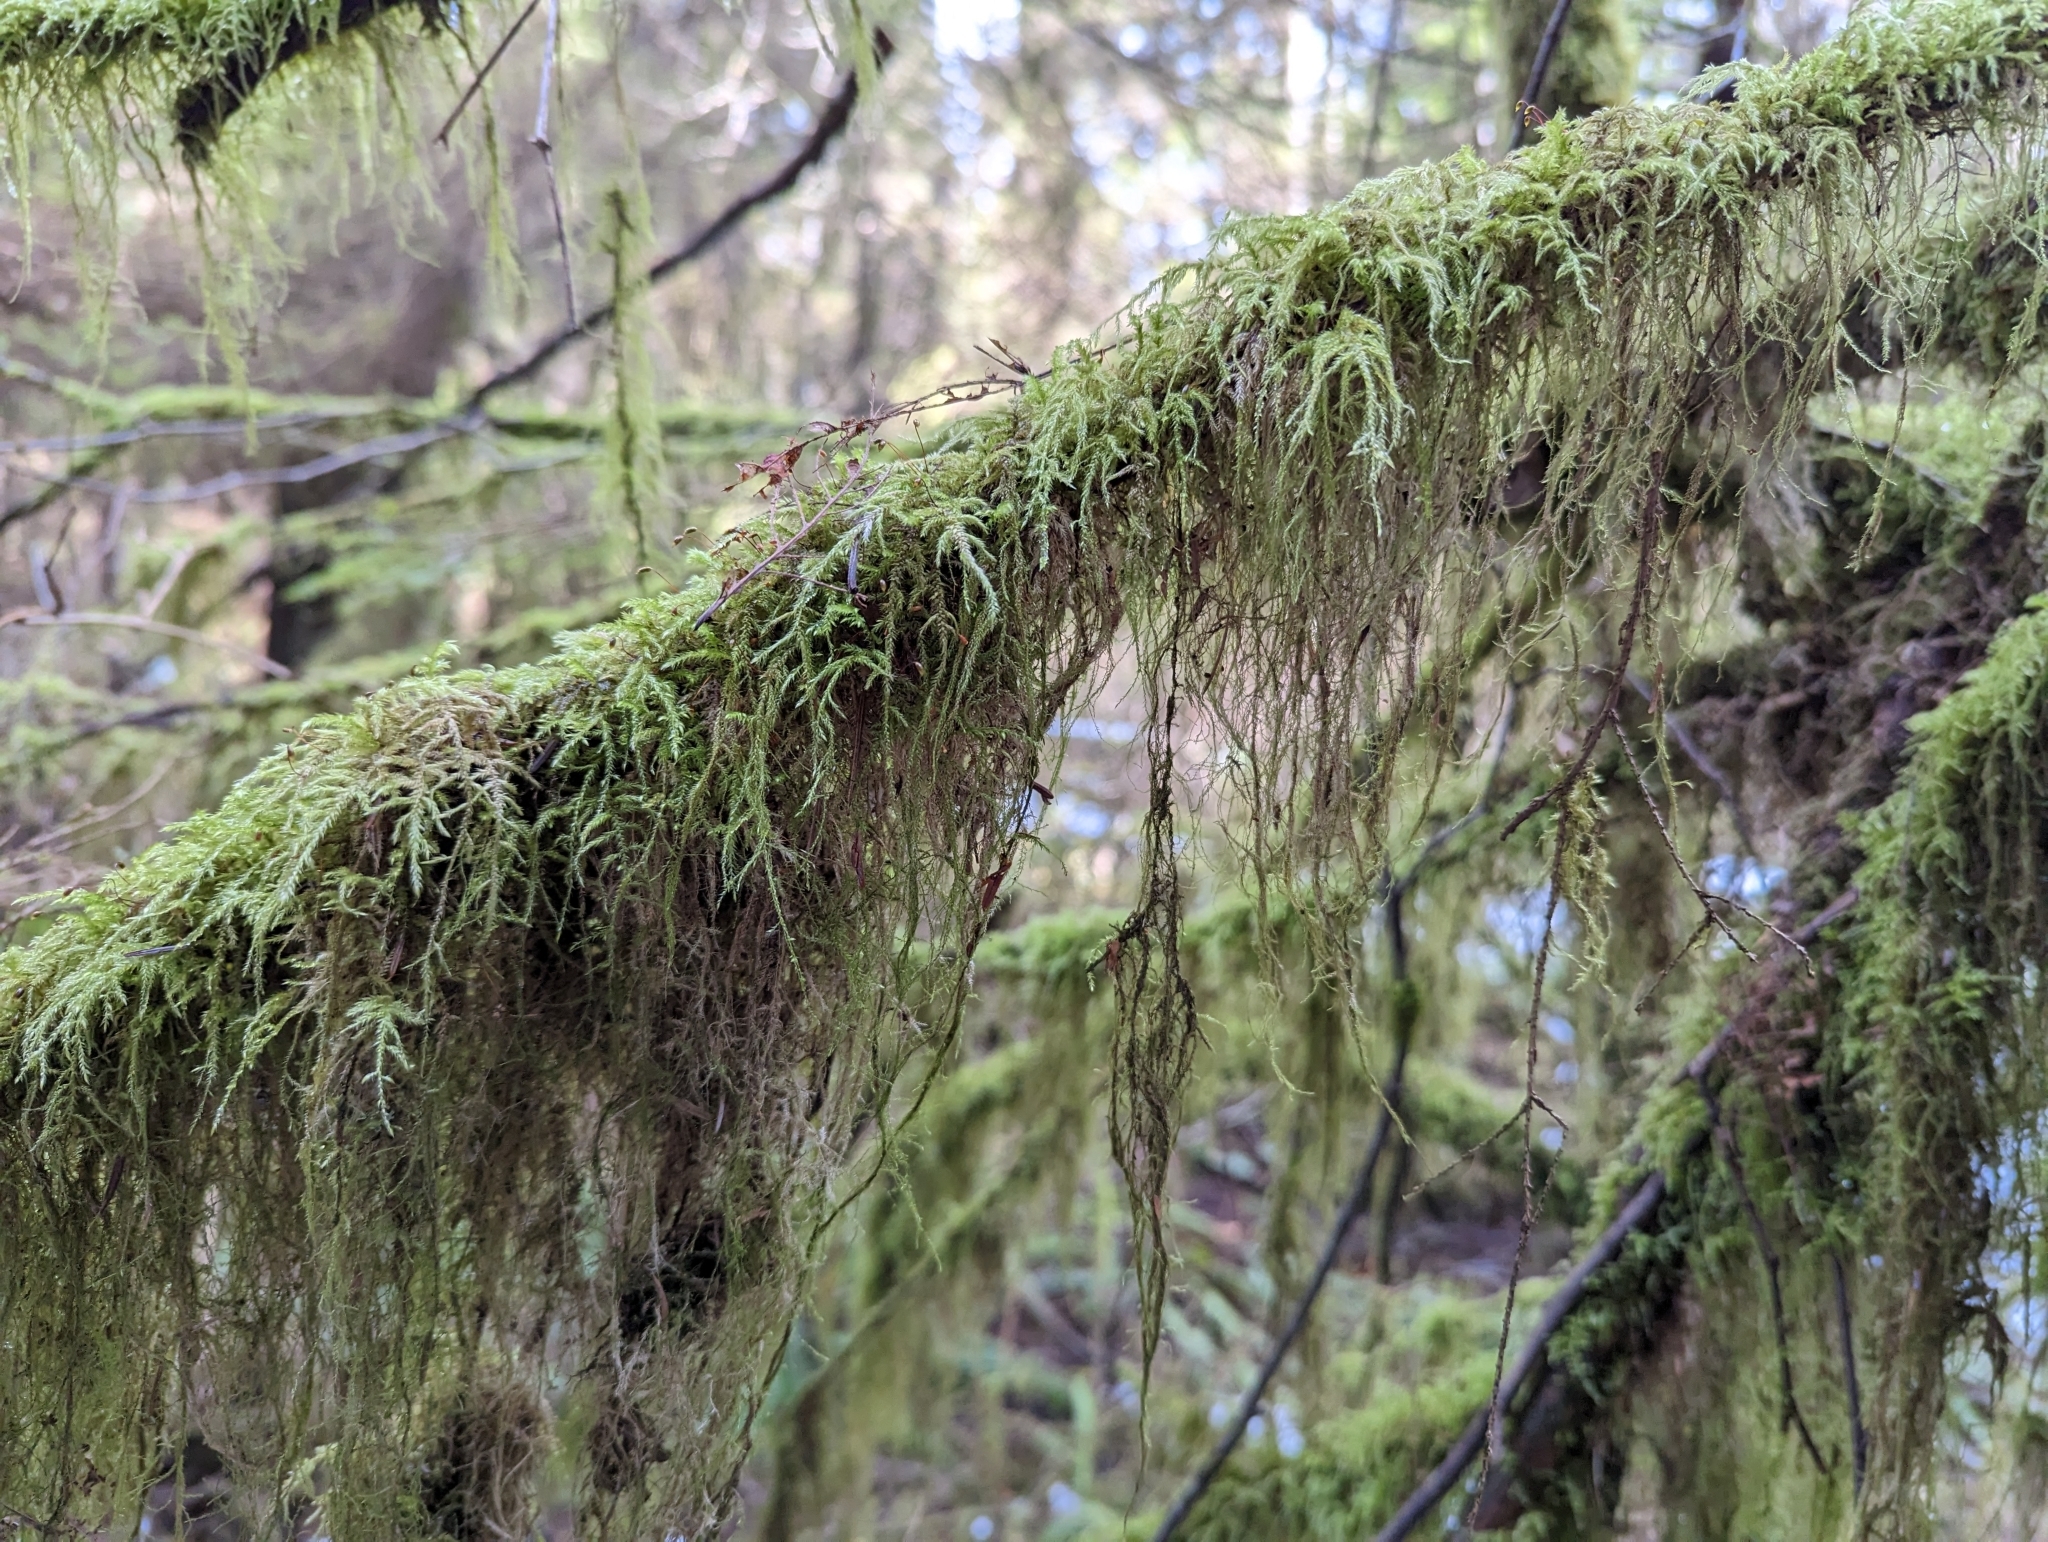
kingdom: Plantae
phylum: Bryophyta
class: Bryopsida
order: Hypnales
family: Lembophyllaceae
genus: Pseudisothecium
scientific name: Pseudisothecium stoloniferum
